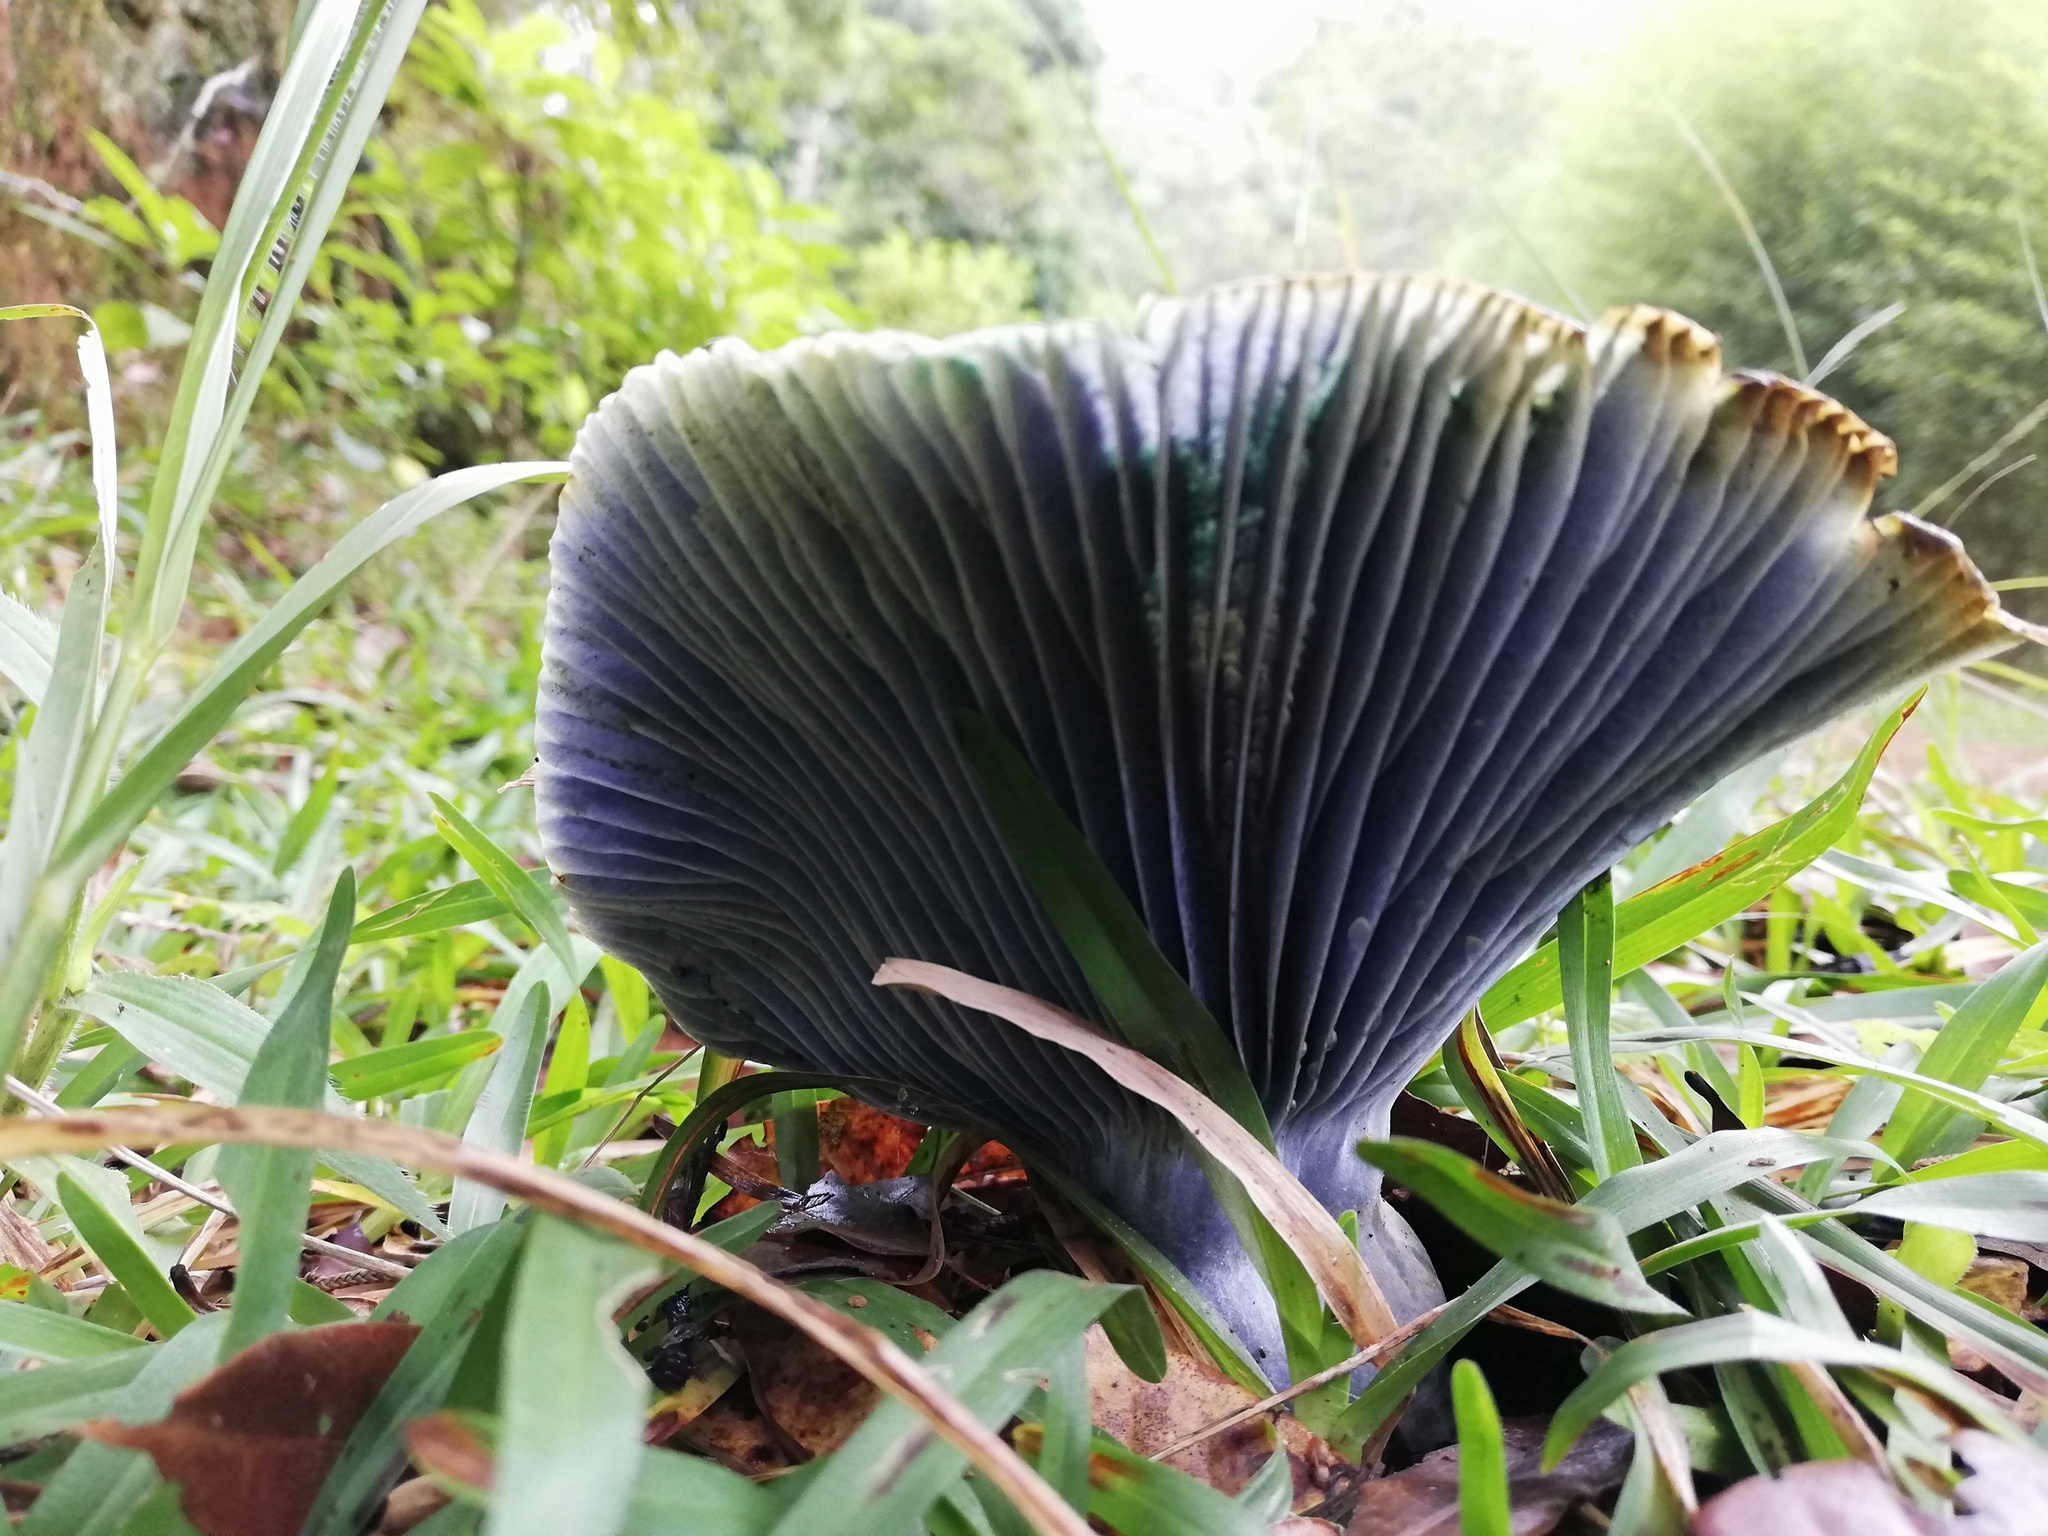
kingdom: Fungi
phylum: Basidiomycota
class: Agaricomycetes
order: Russulales
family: Russulaceae
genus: Lactarius
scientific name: Lactarius indigo
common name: Indigo milk cap
